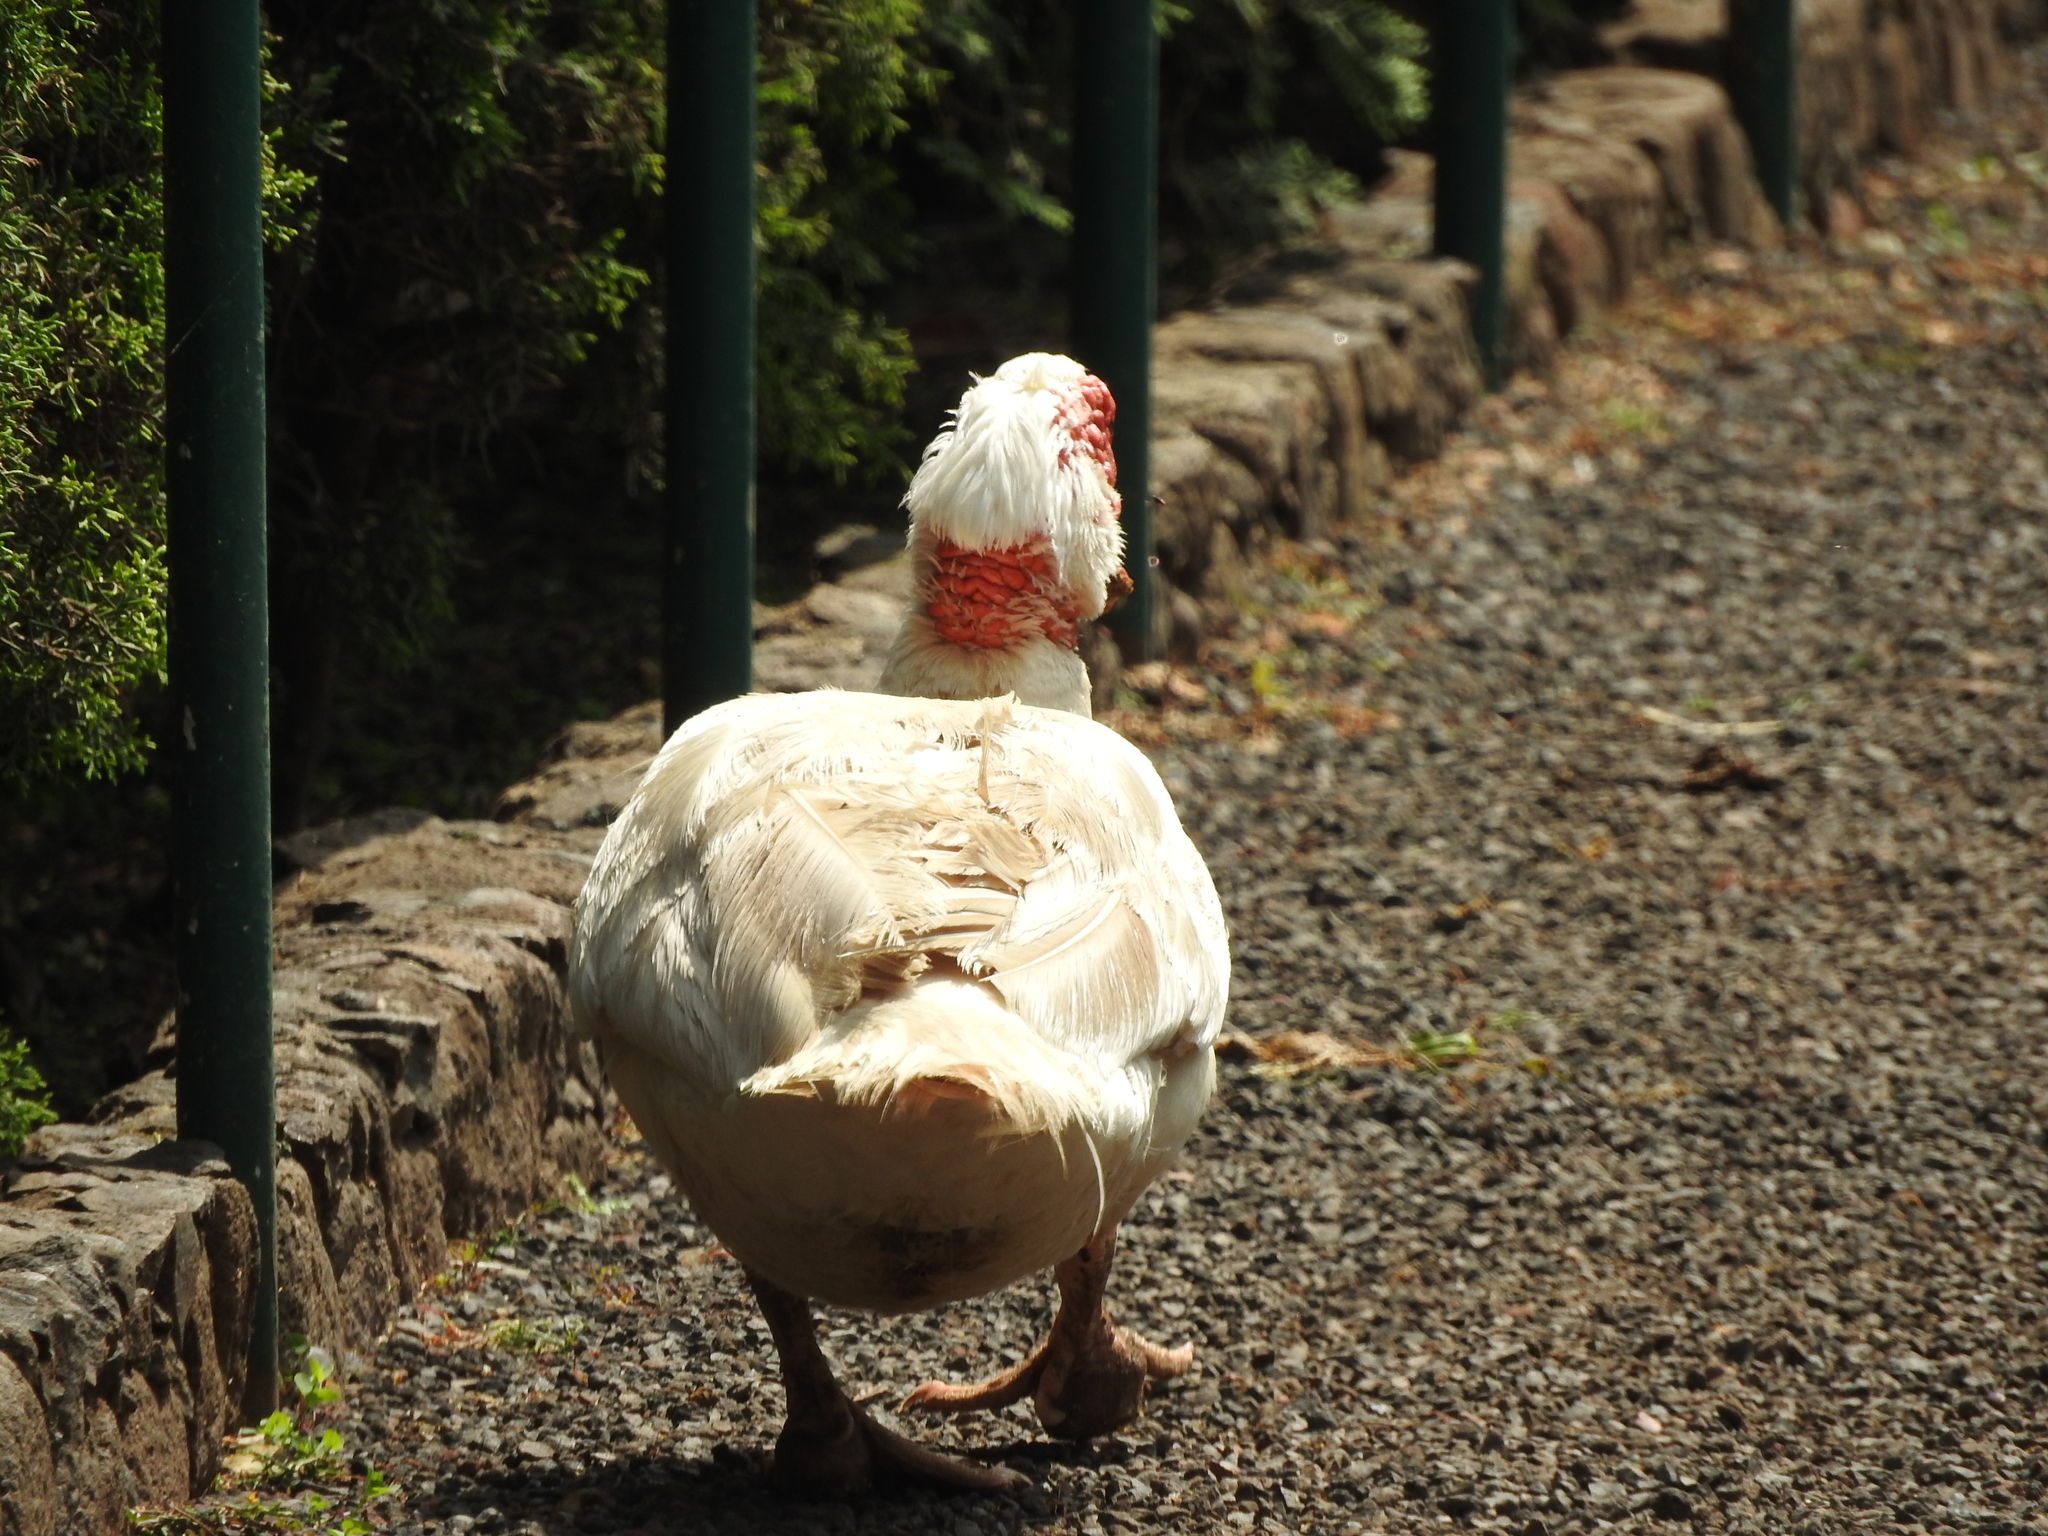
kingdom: Animalia
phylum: Chordata
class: Aves
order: Anseriformes
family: Anatidae
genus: Cairina
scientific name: Cairina moschata
